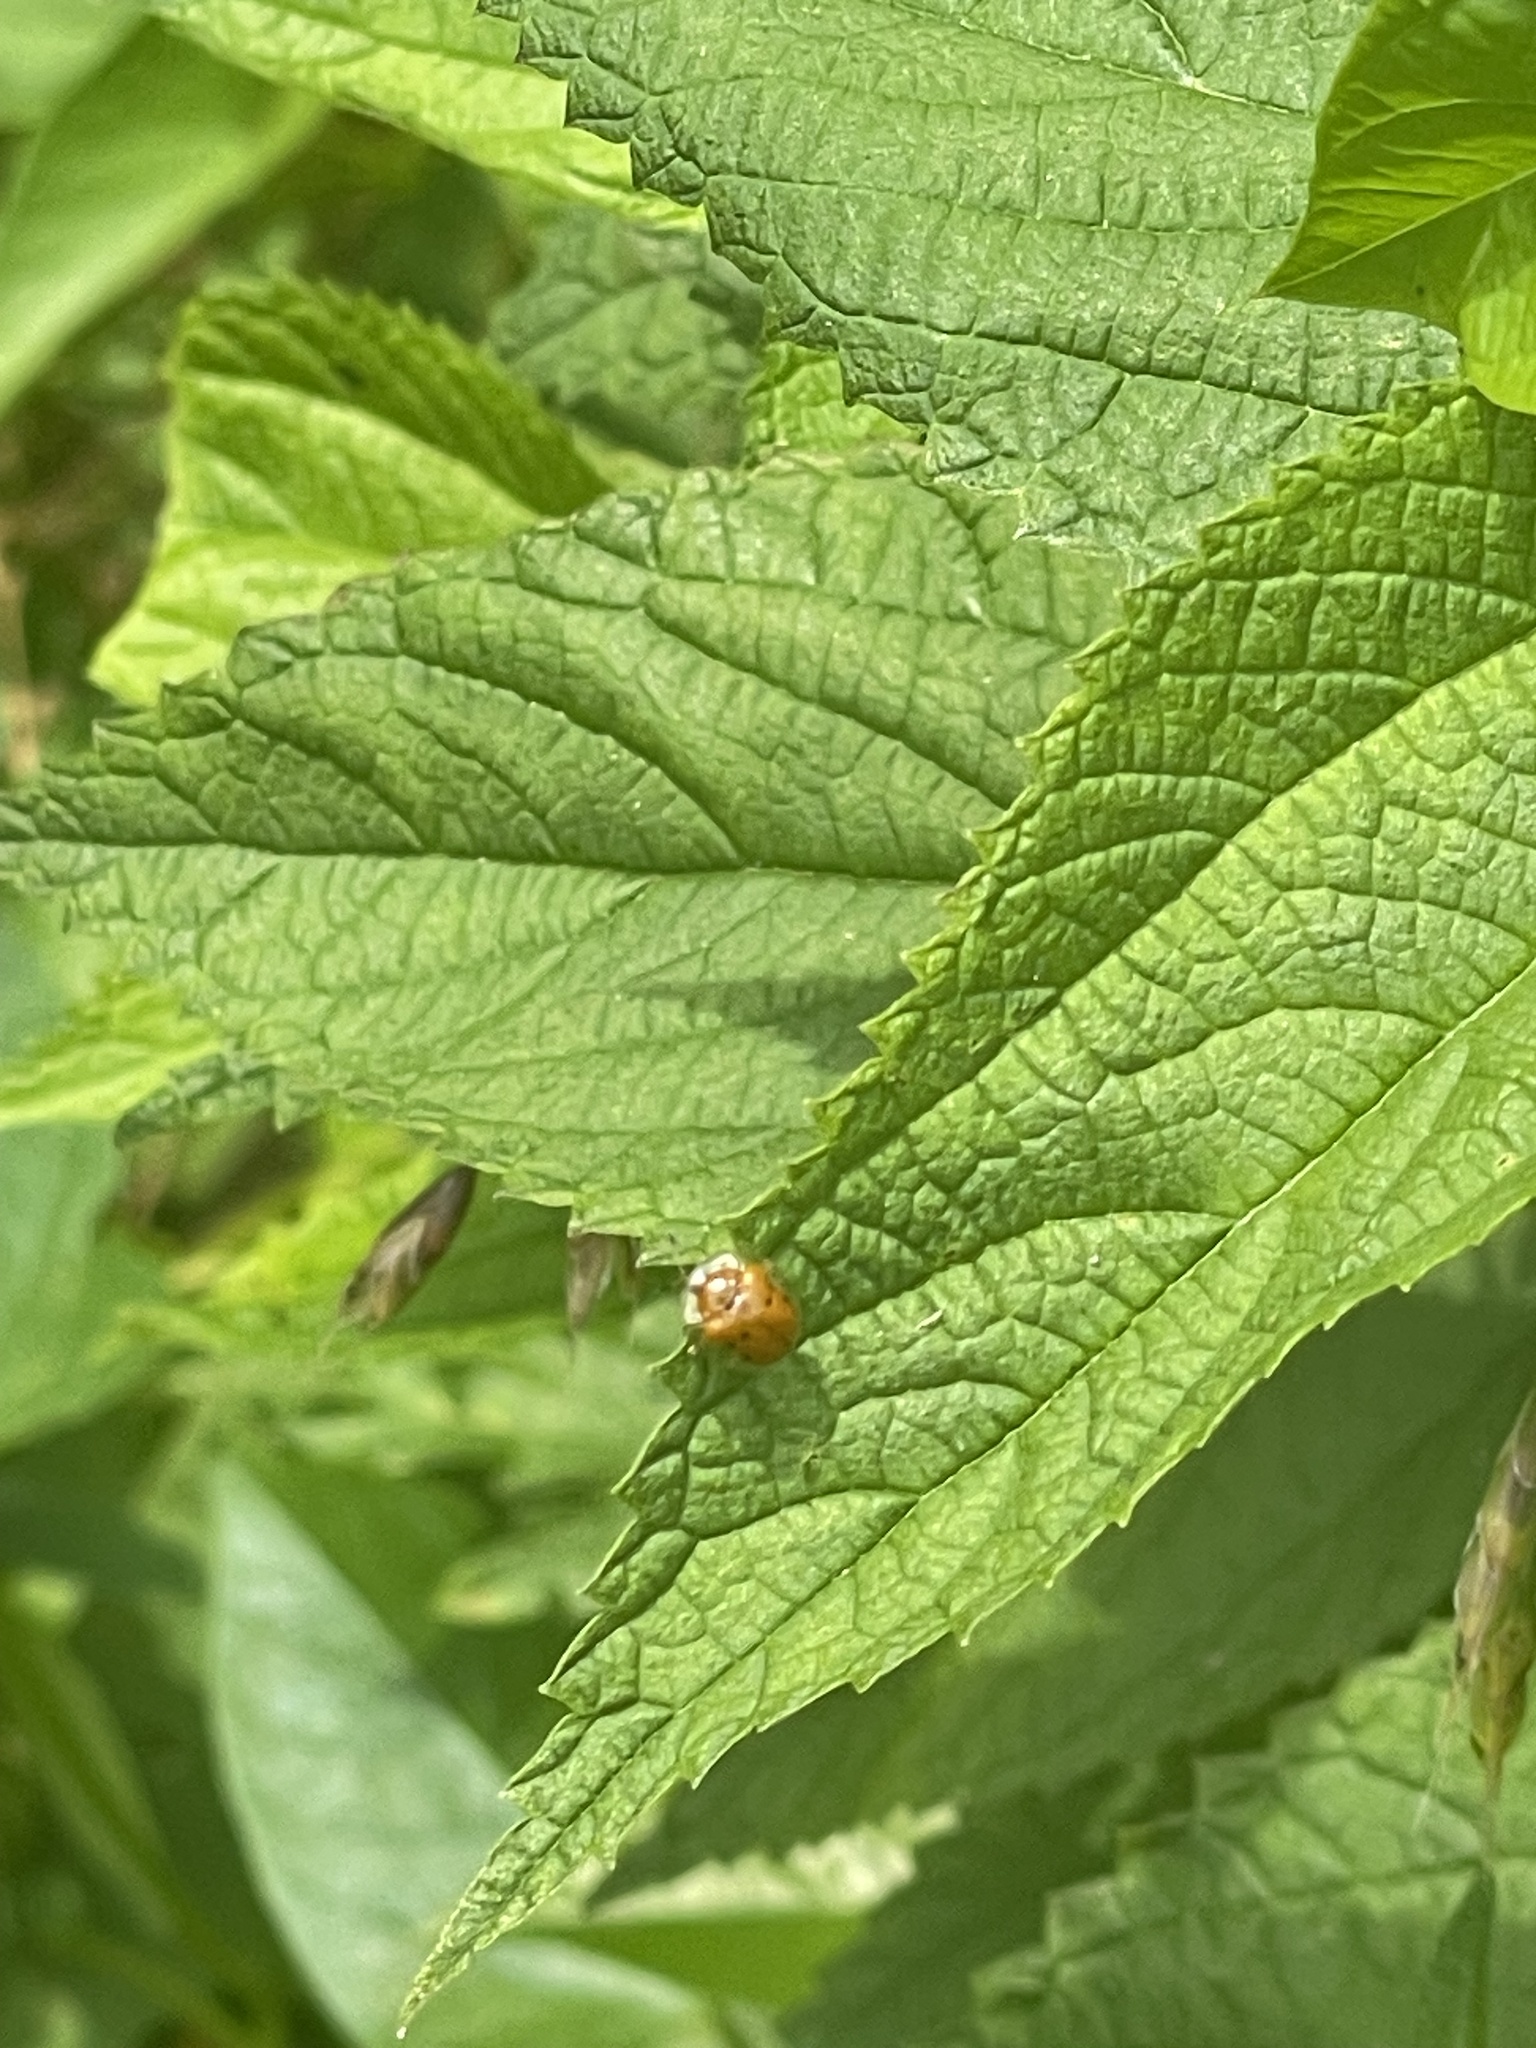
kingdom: Animalia
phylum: Arthropoda
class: Insecta
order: Coleoptera
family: Chrysomelidae
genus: Charidotella
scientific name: Charidotella sexpunctata
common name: Golden tortoise beetle
